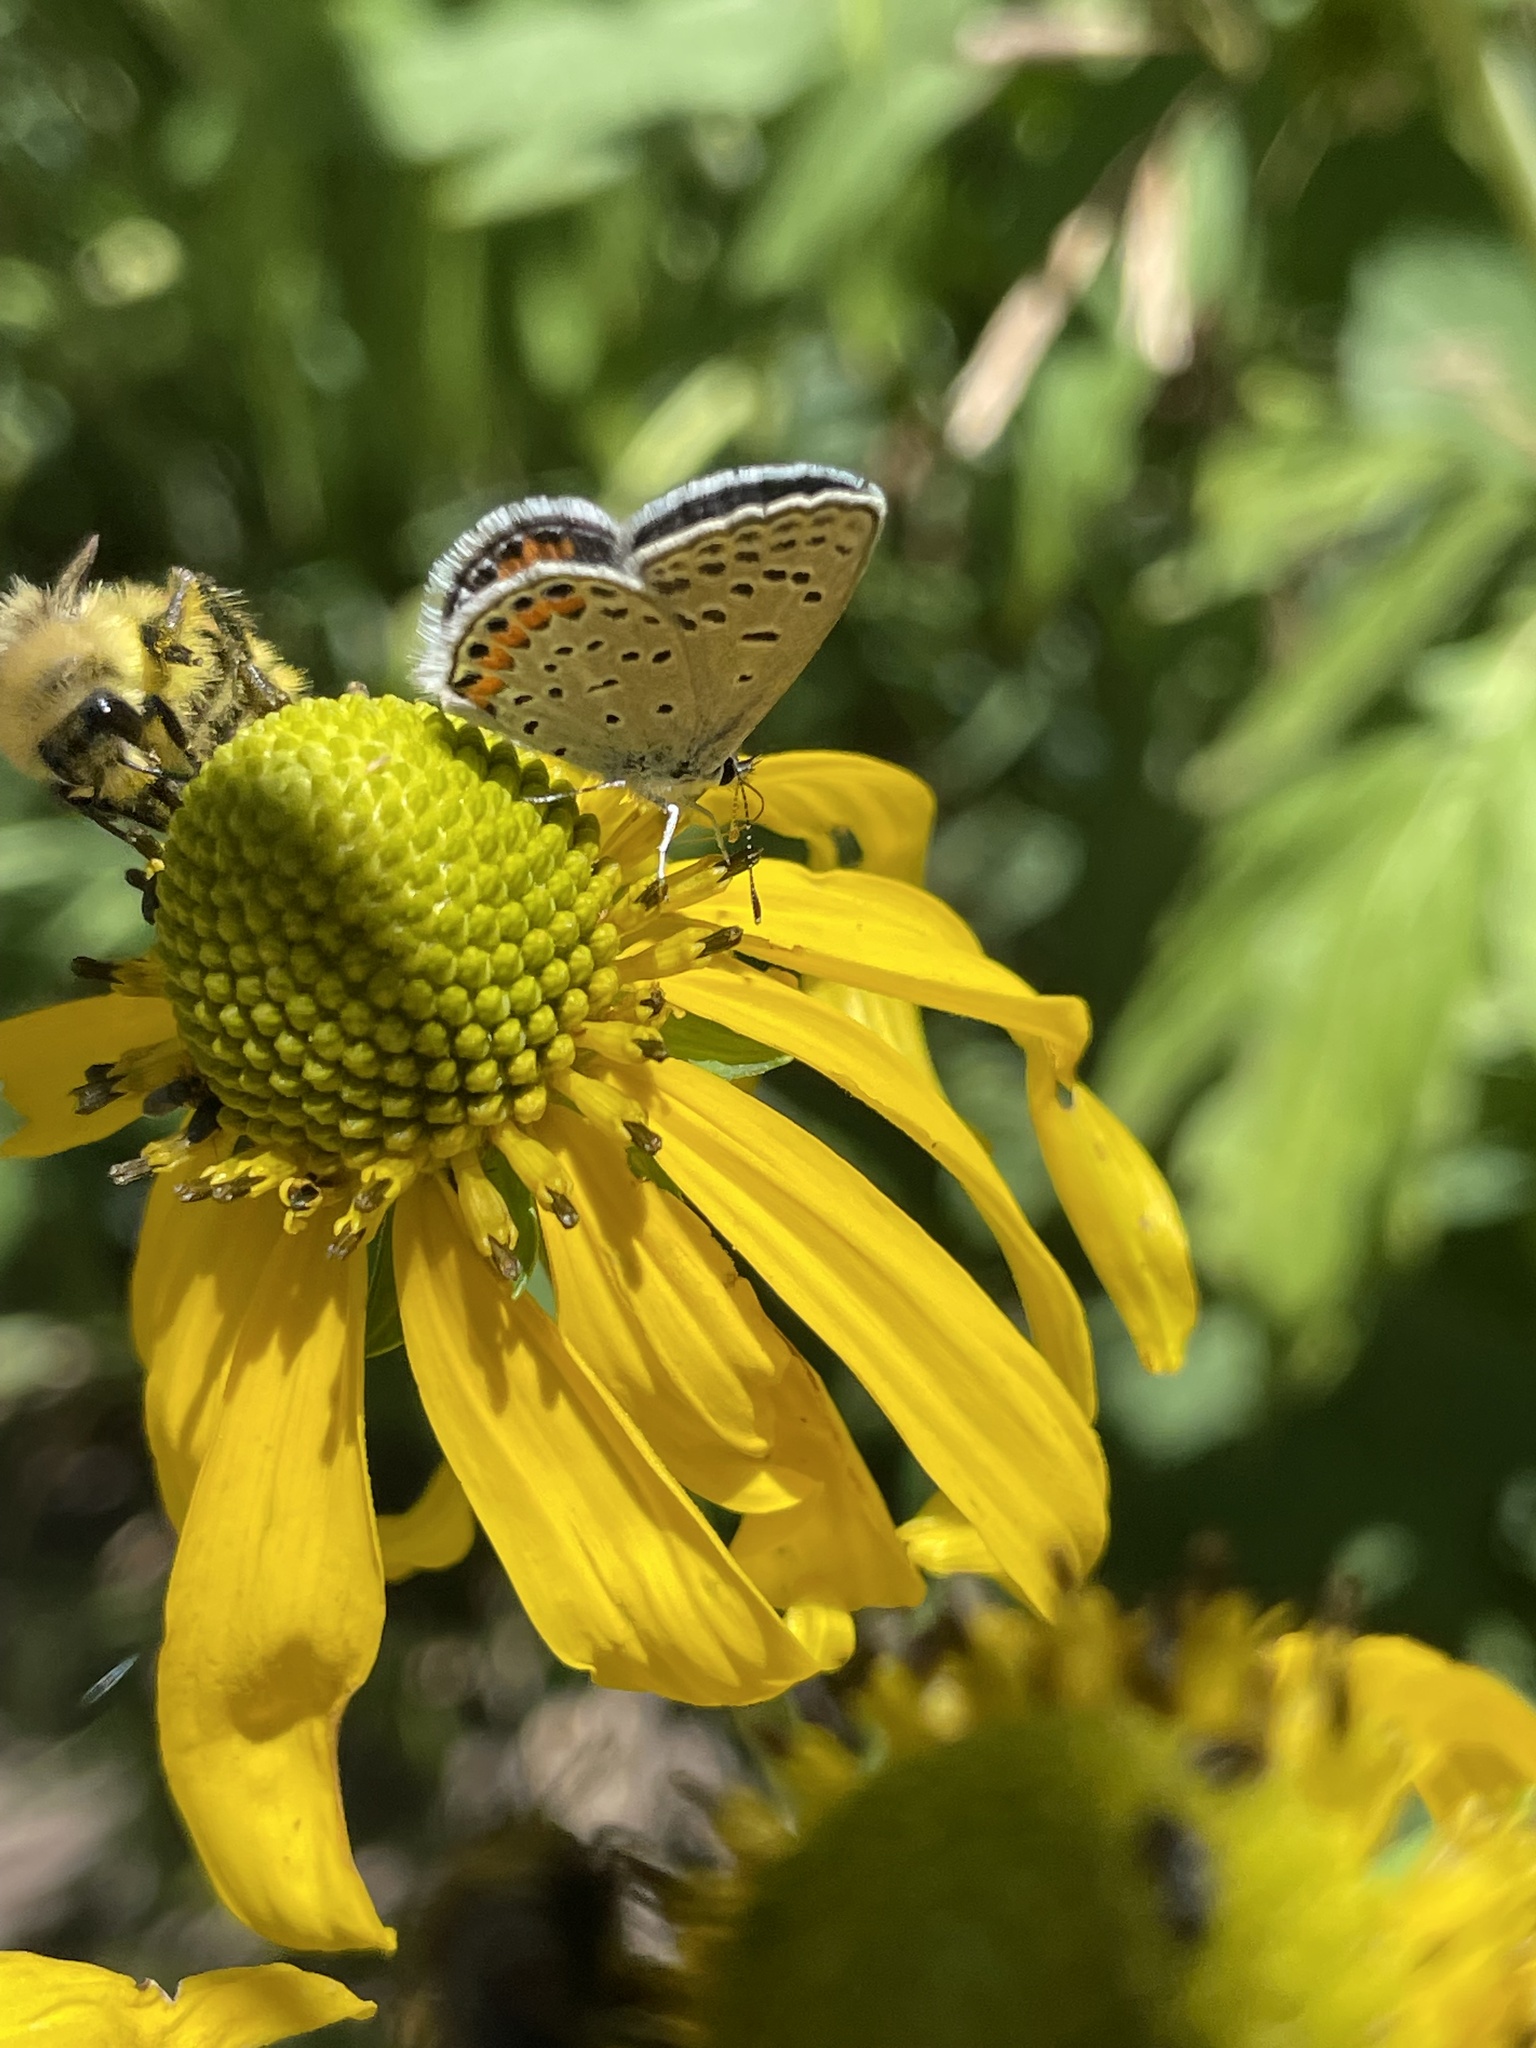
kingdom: Animalia
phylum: Arthropoda
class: Insecta
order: Lepidoptera
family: Lycaenidae
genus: Icaricia
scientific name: Icaricia lupini
